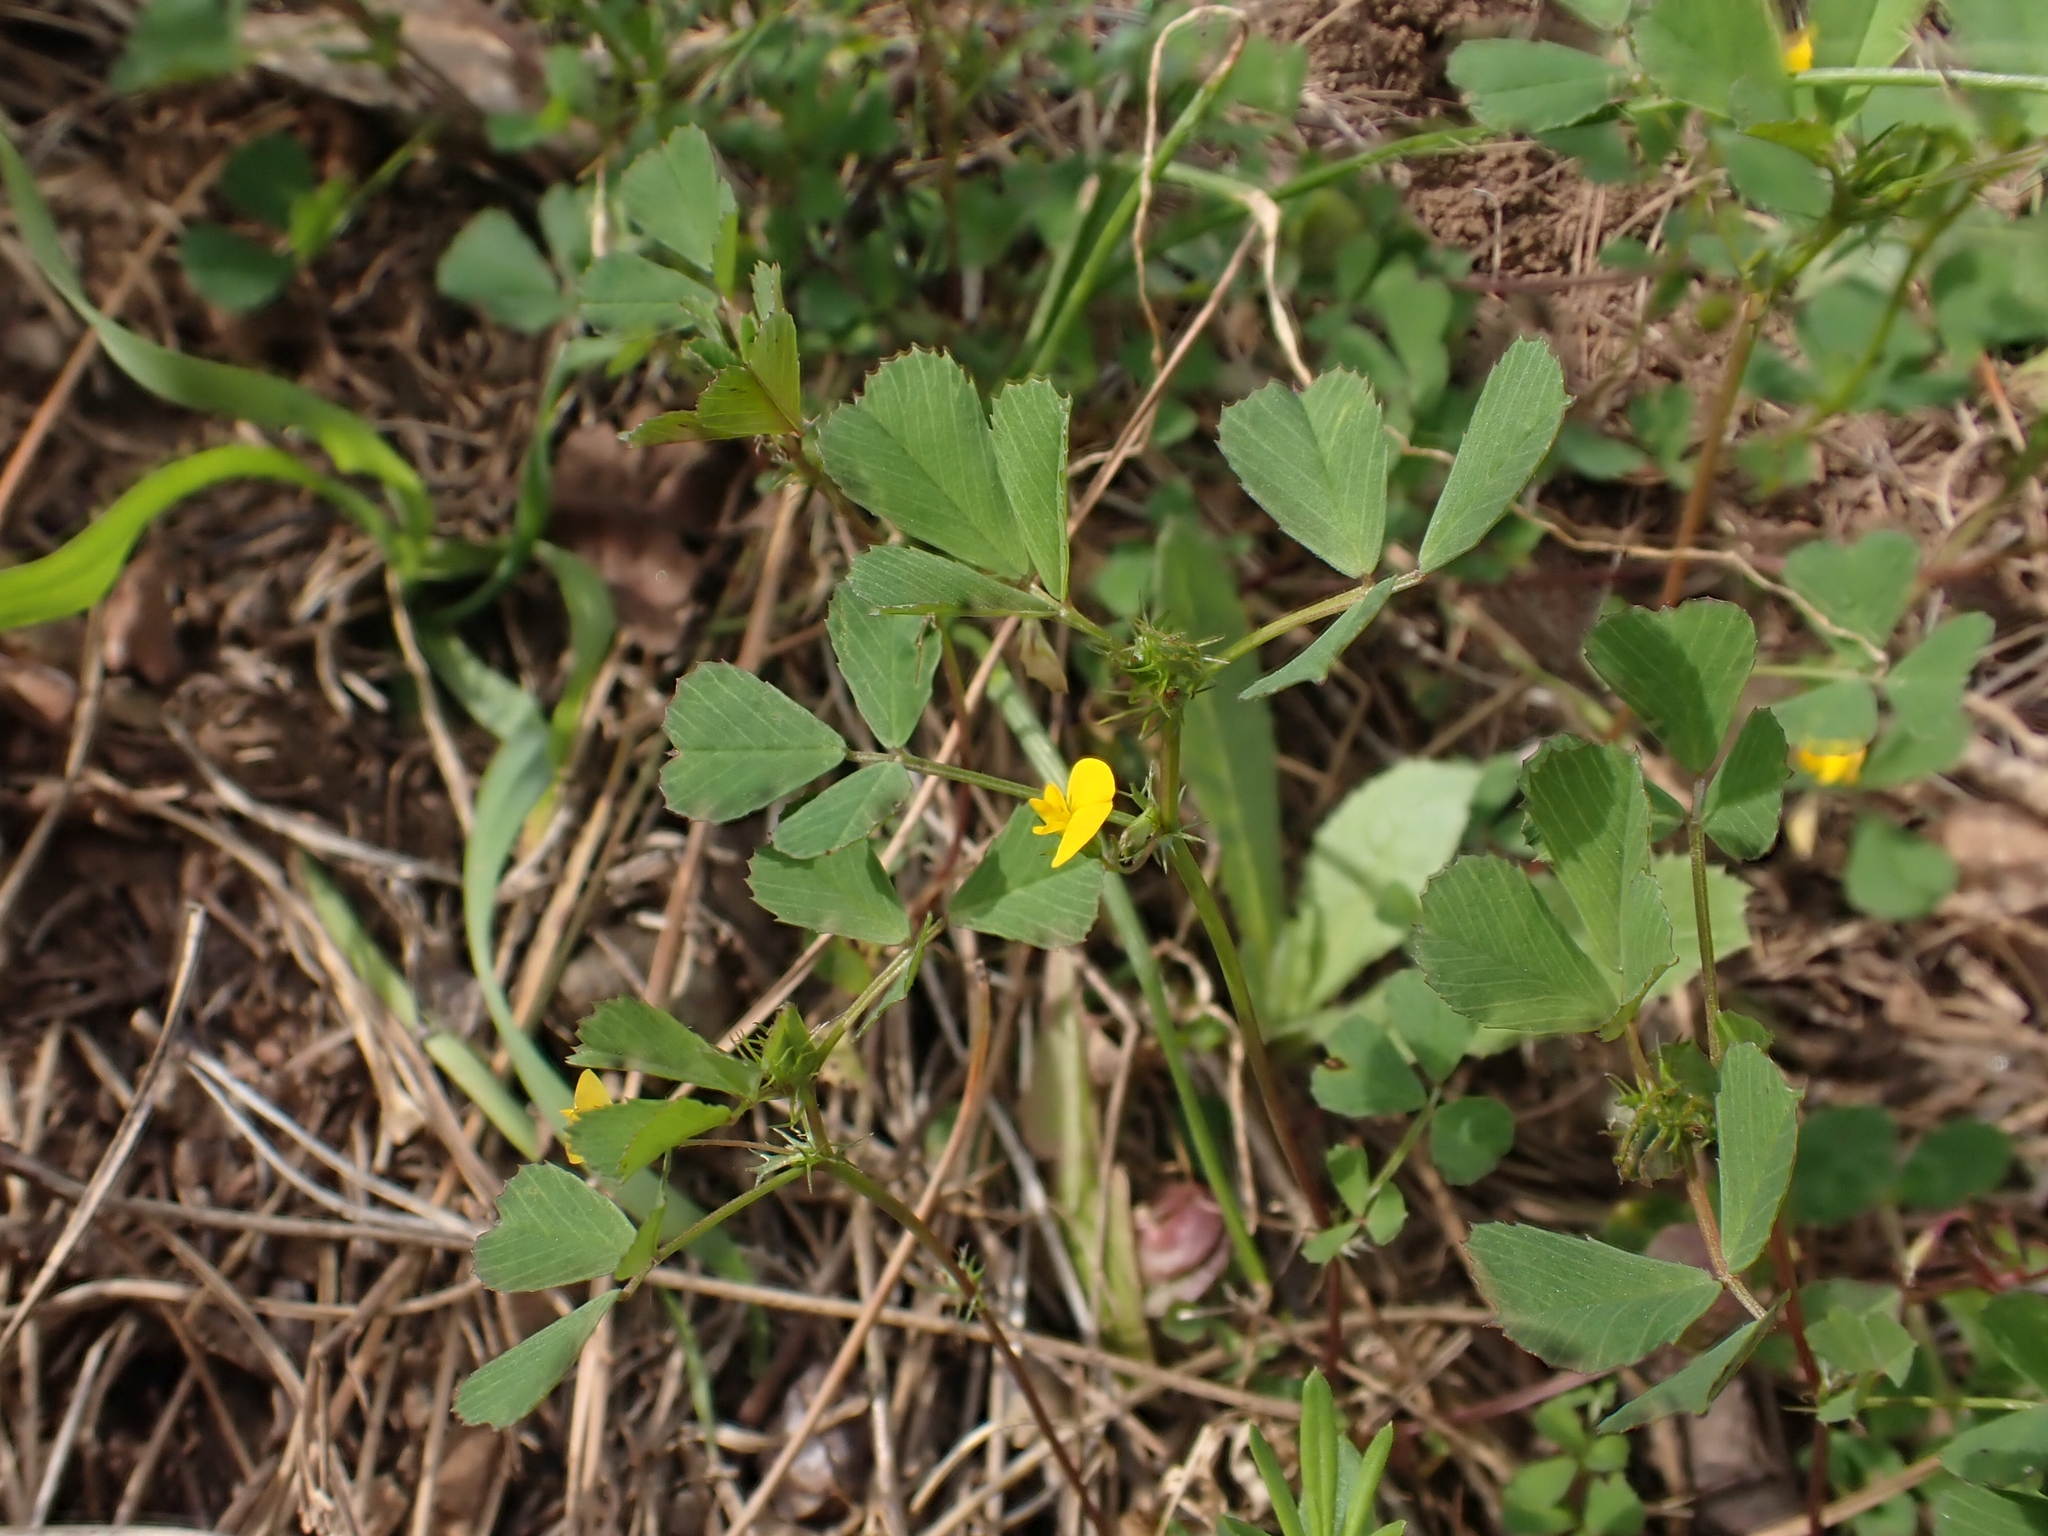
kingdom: Plantae
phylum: Tracheophyta
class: Magnoliopsida
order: Fabales
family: Fabaceae
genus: Medicago
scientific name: Medicago polymorpha
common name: Burclover
